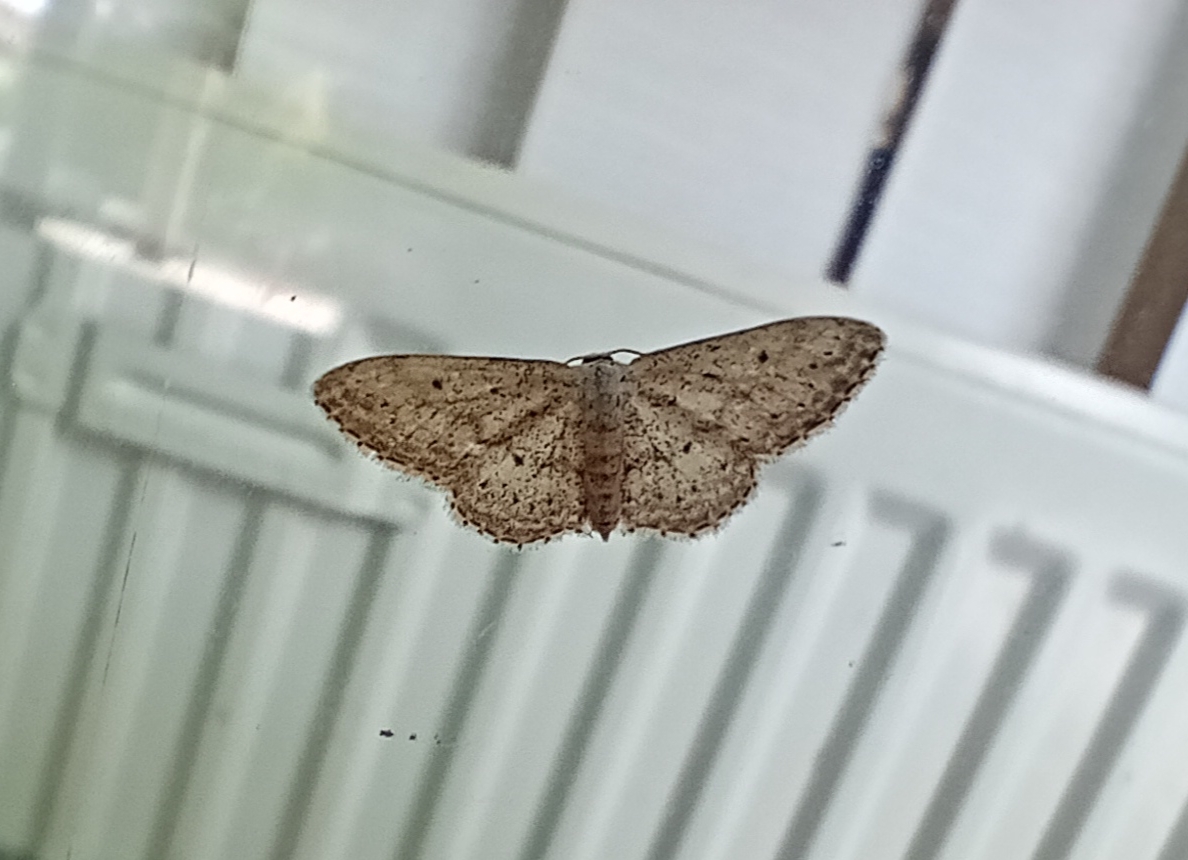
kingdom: Animalia
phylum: Arthropoda
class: Insecta
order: Lepidoptera
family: Geometridae
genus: Idaea
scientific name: Idaea seriata
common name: Small dusty wave
